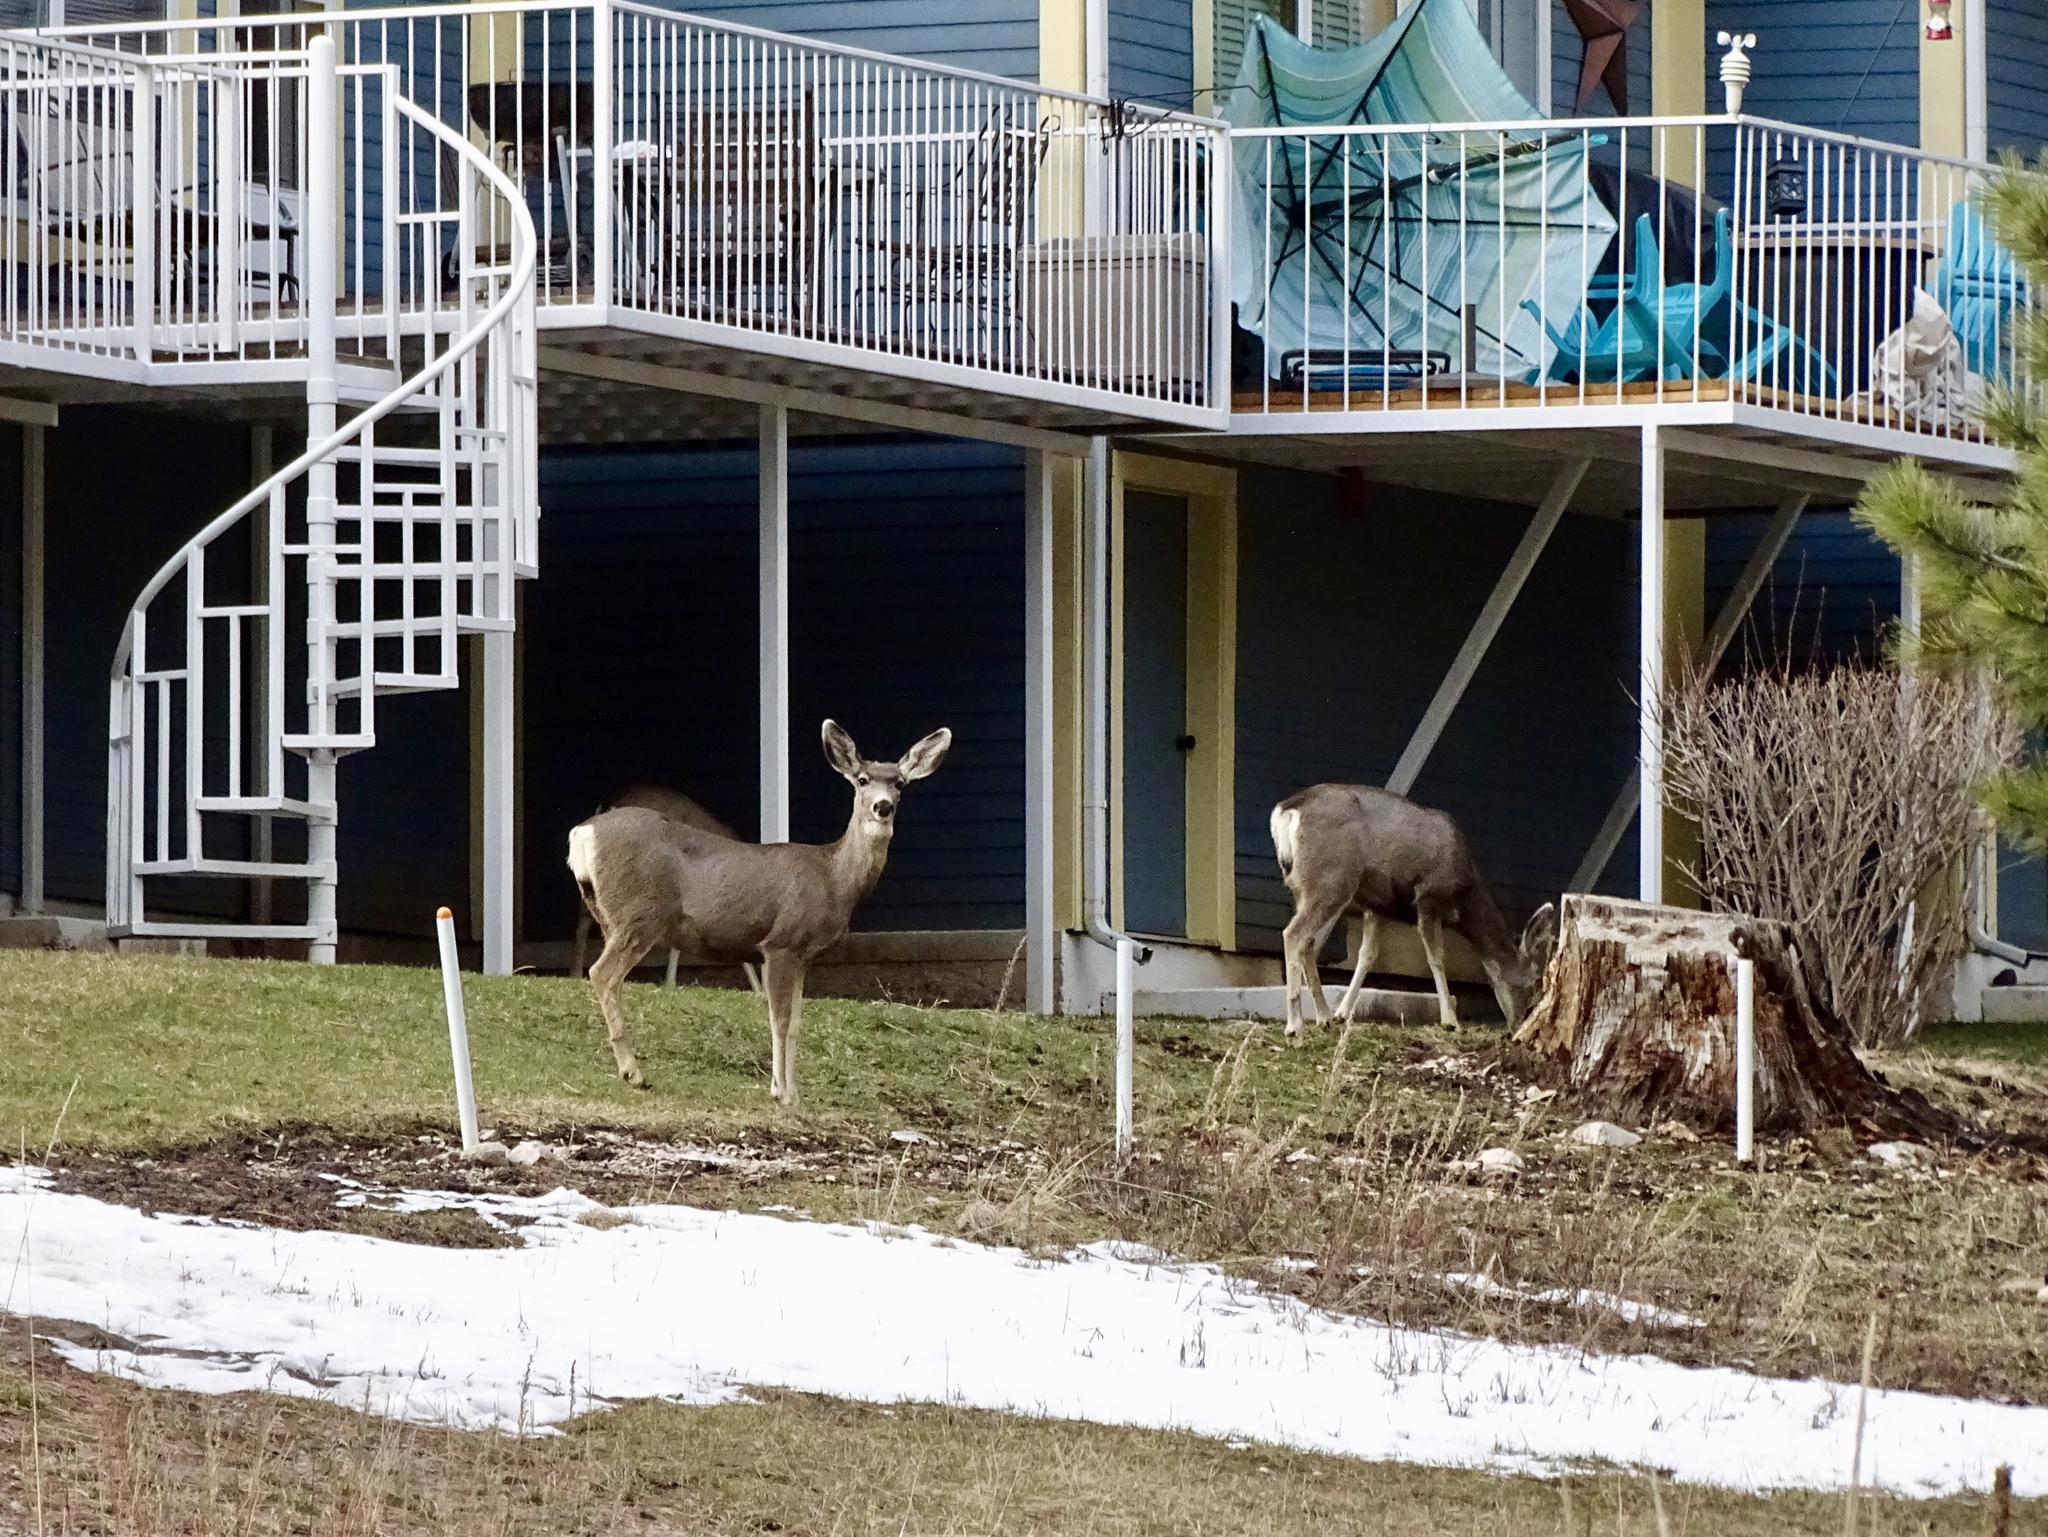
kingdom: Animalia
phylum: Chordata
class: Mammalia
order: Artiodactyla
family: Cervidae
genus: Odocoileus
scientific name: Odocoileus hemionus
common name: Mule deer
